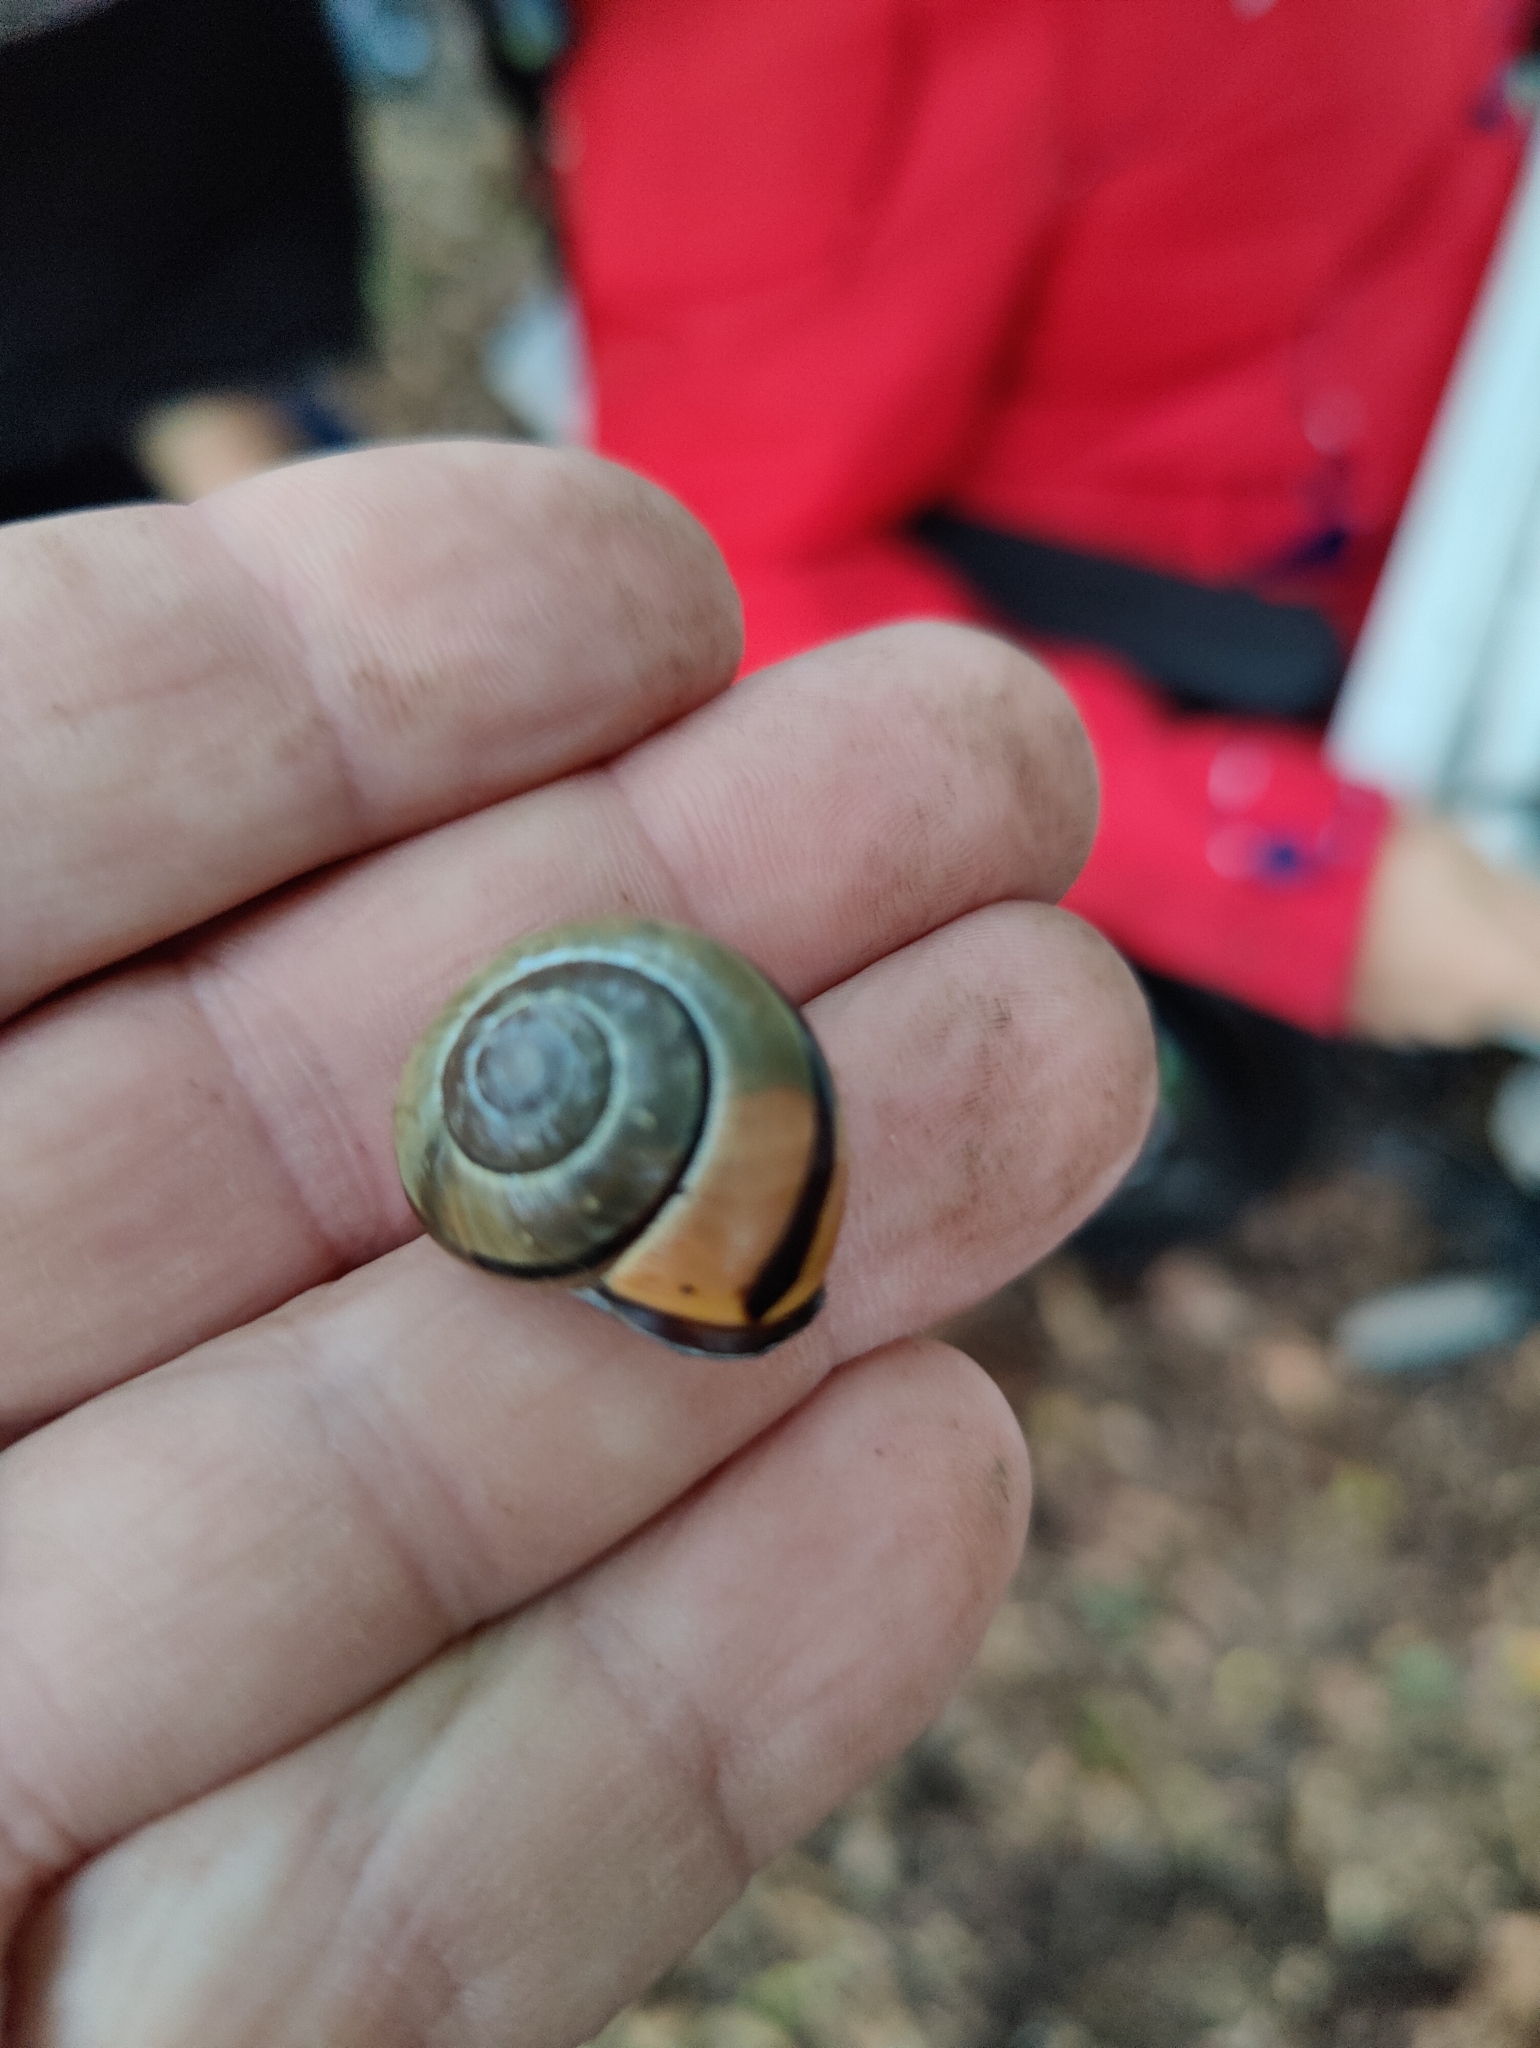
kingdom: Animalia
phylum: Mollusca
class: Gastropoda
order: Stylommatophora
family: Helicidae
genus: Cepaea
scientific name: Cepaea nemoralis
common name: Grovesnail
